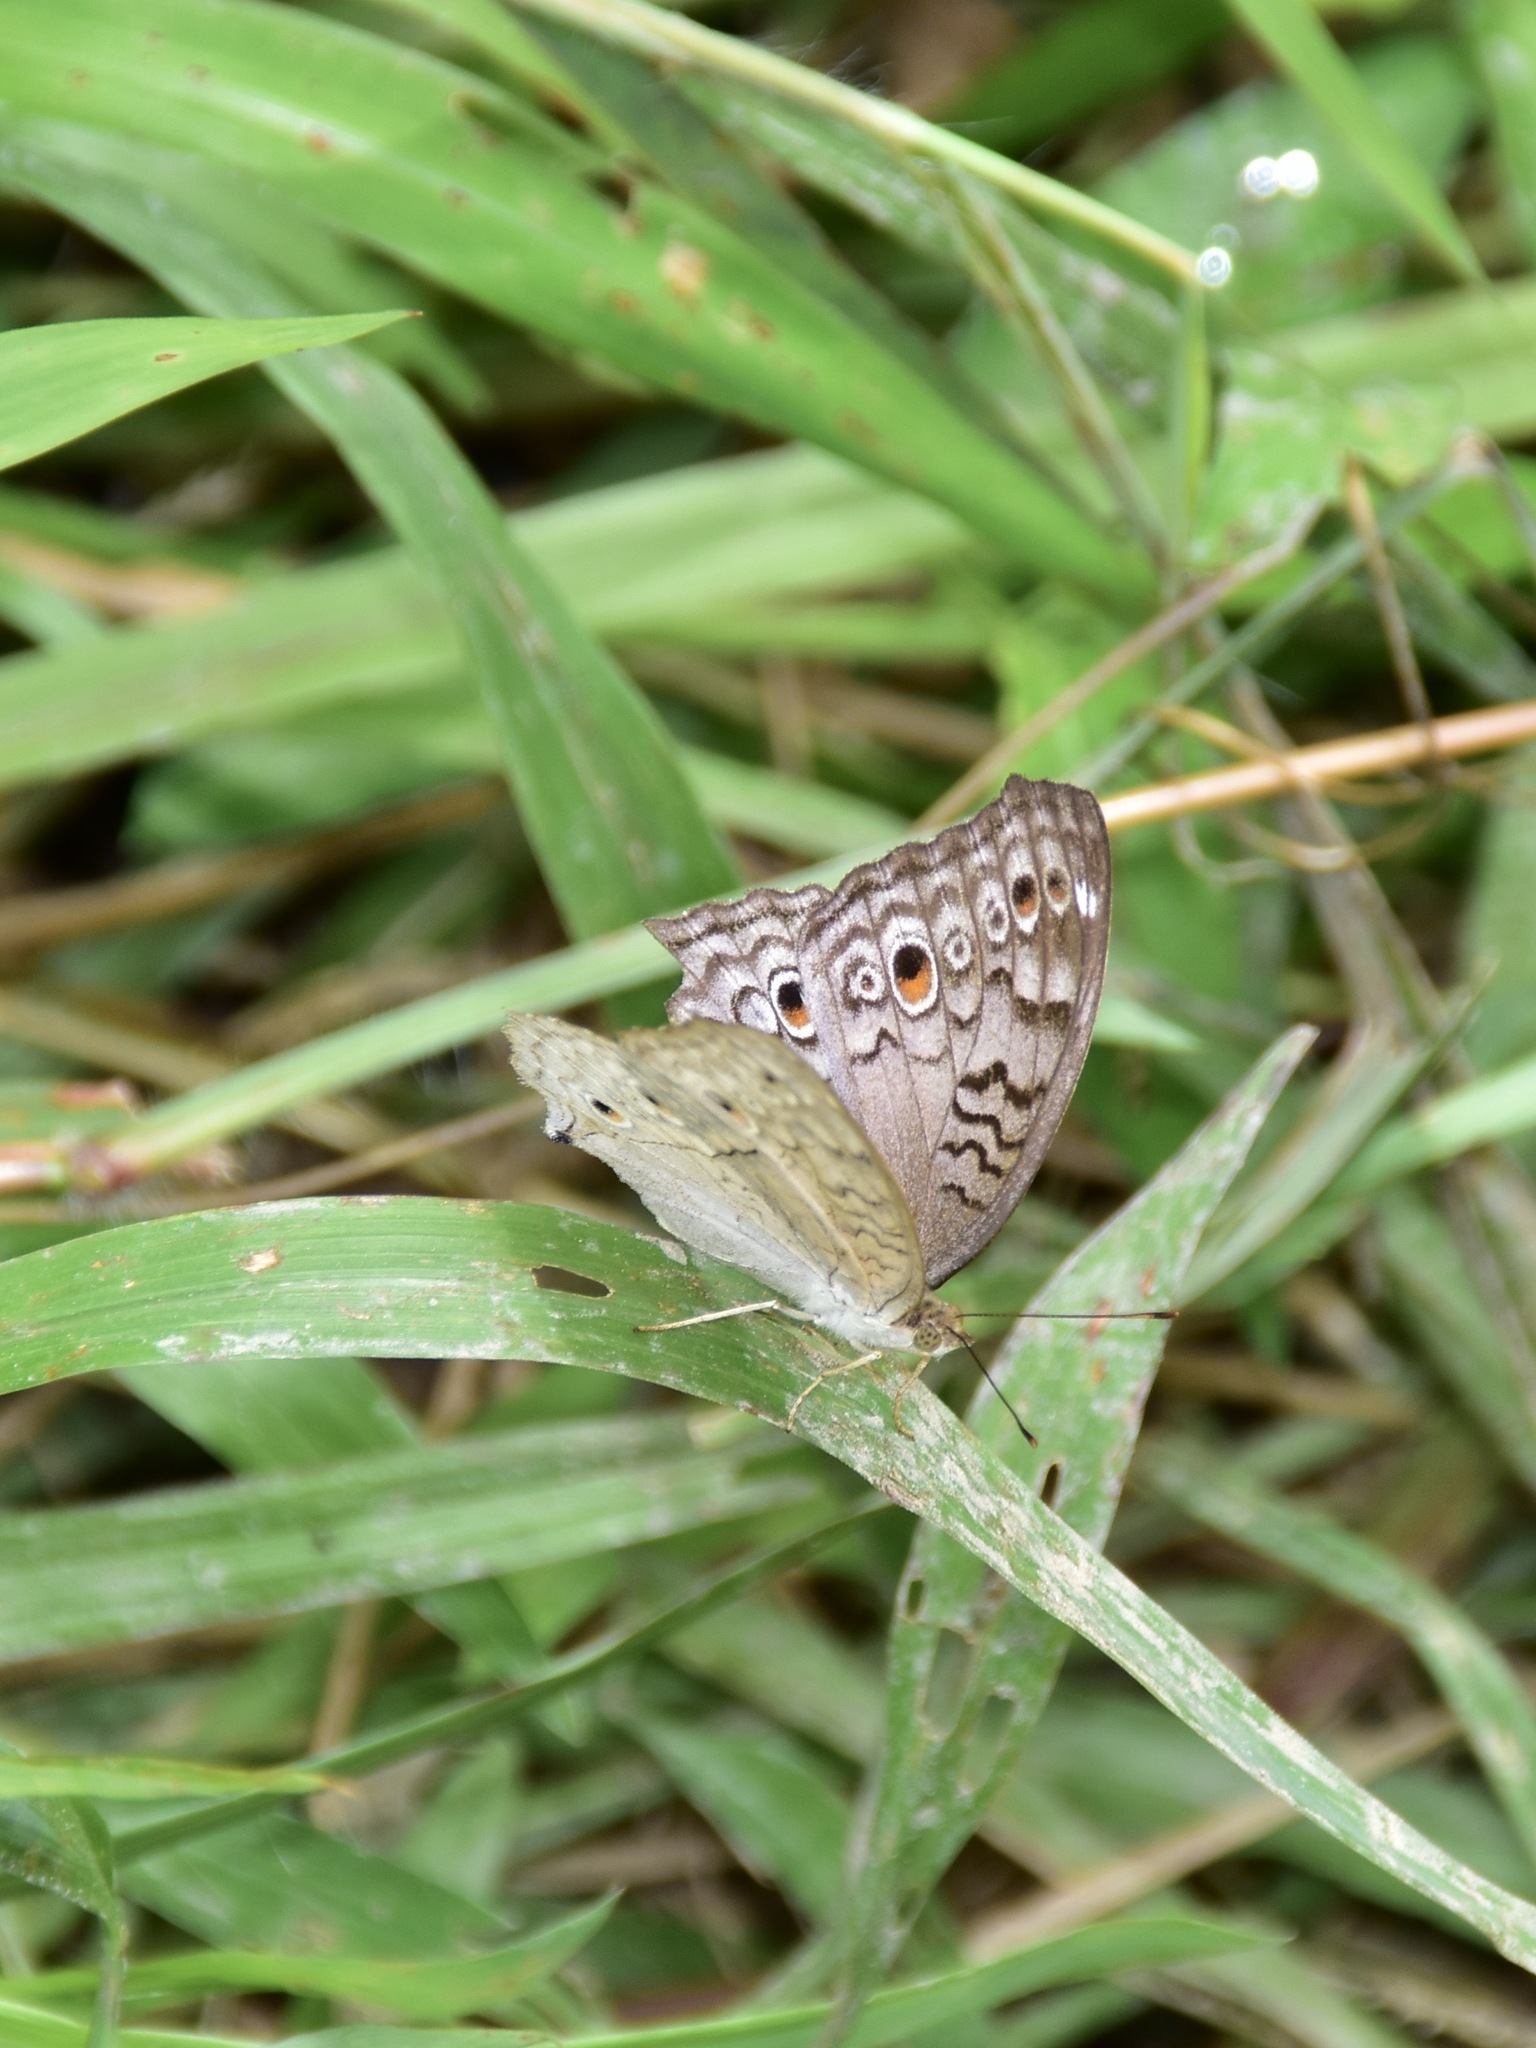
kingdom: Animalia
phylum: Arthropoda
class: Insecta
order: Lepidoptera
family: Nymphalidae
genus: Junonia
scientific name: Junonia atlites
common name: Grey pansy
